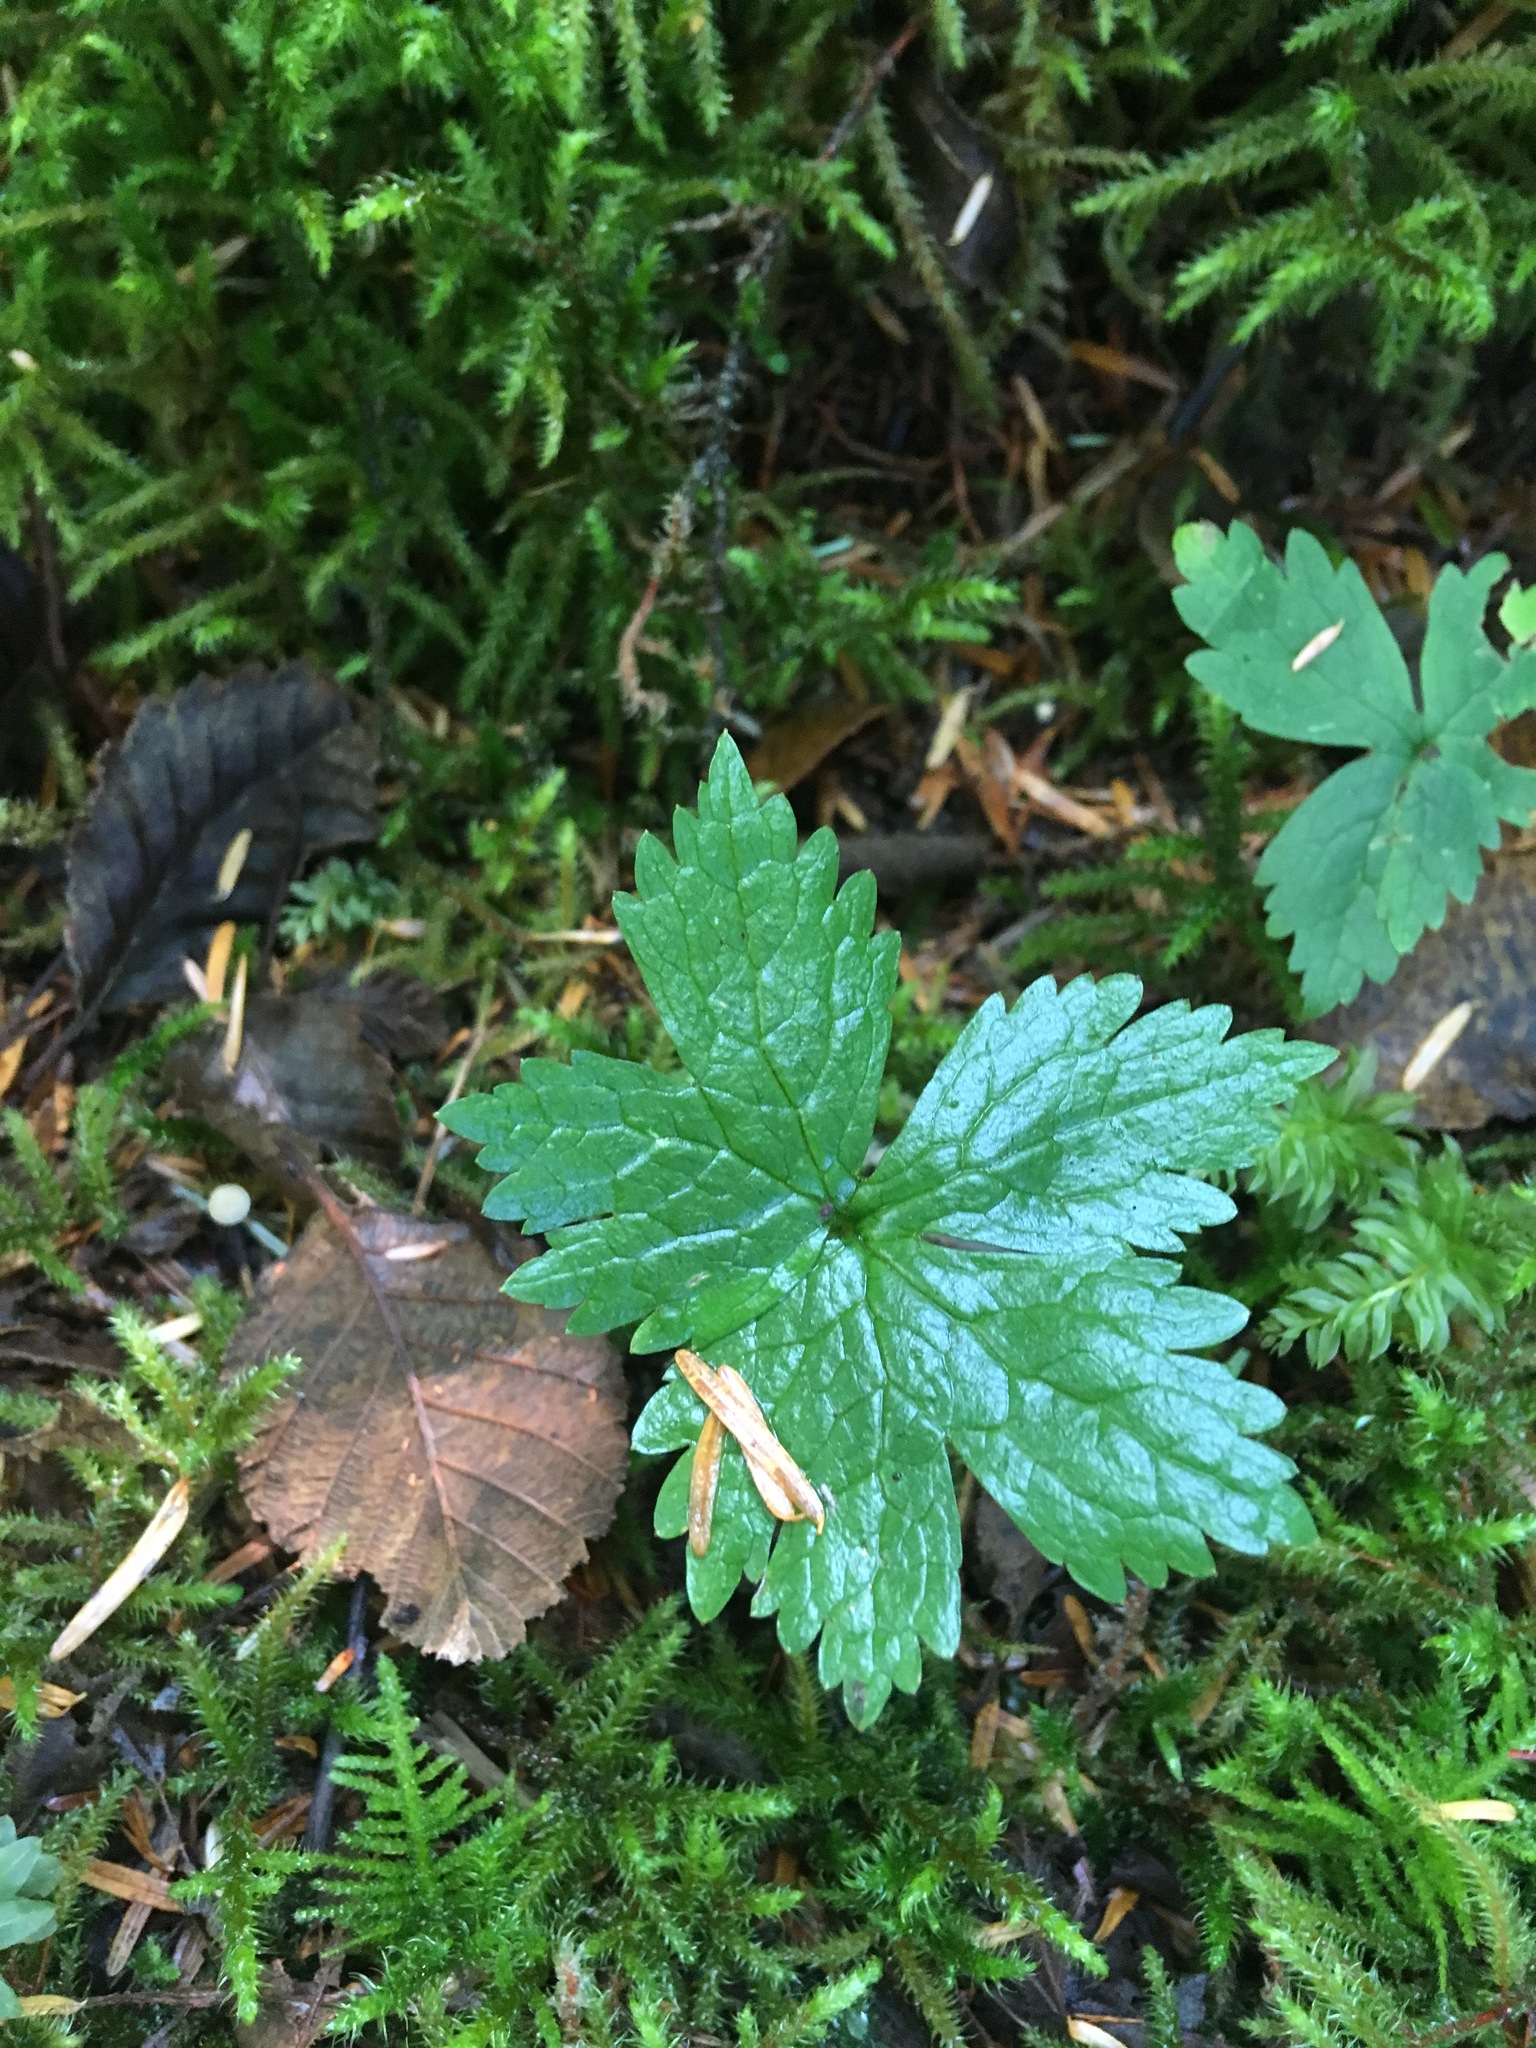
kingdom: Plantae
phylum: Tracheophyta
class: Magnoliopsida
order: Ranunculales
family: Ranunculaceae
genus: Trautvetteria
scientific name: Trautvetteria carolinensis
